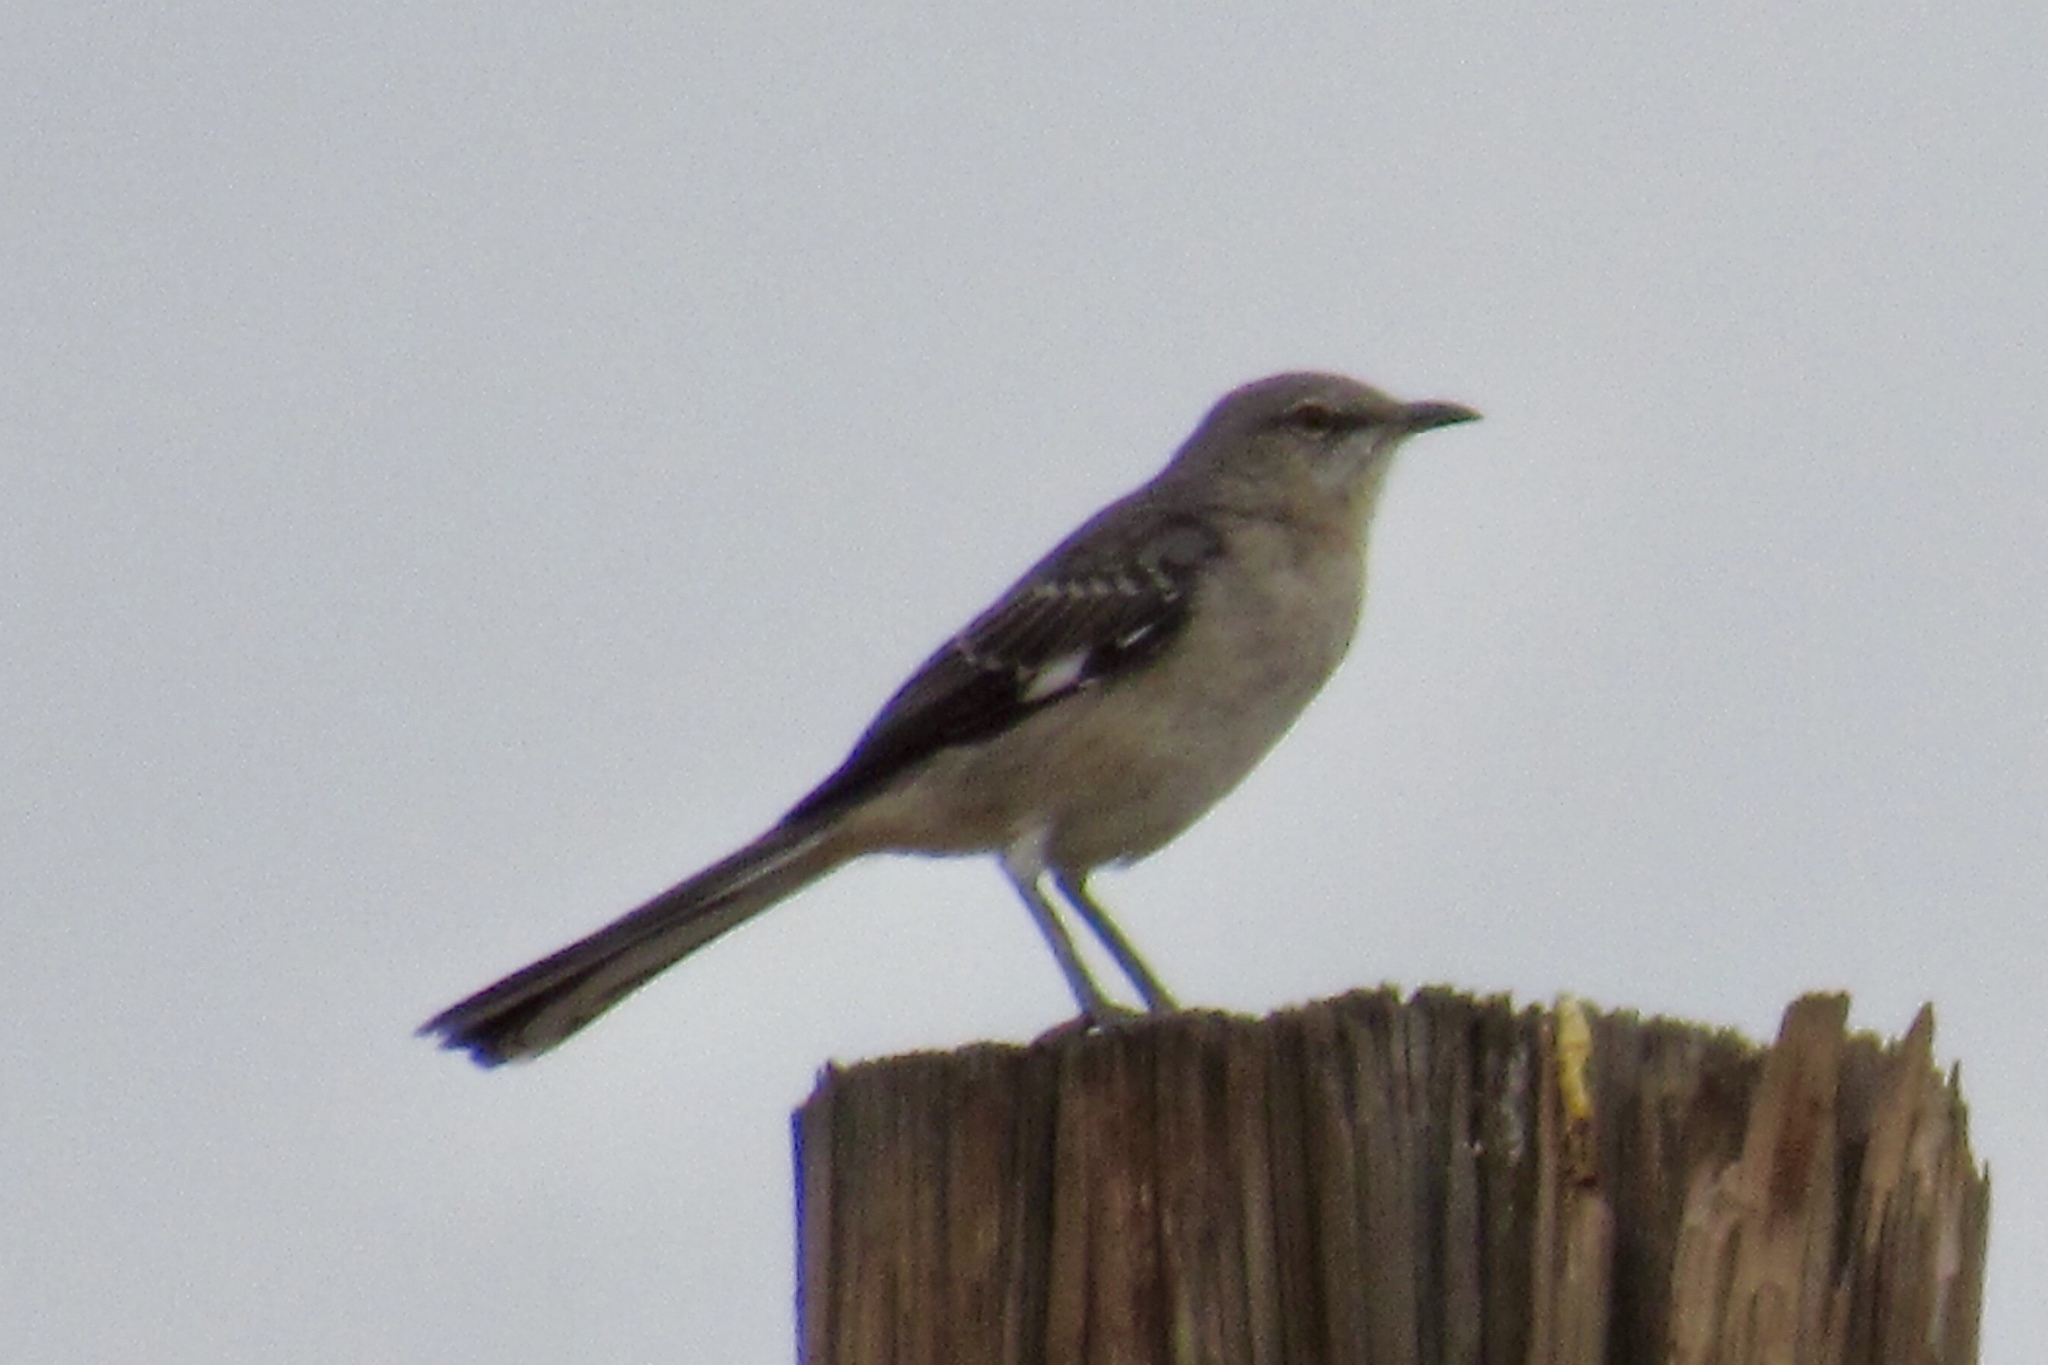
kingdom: Animalia
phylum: Chordata
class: Aves
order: Passeriformes
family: Mimidae
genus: Mimus
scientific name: Mimus polyglottos
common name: Northern mockingbird
